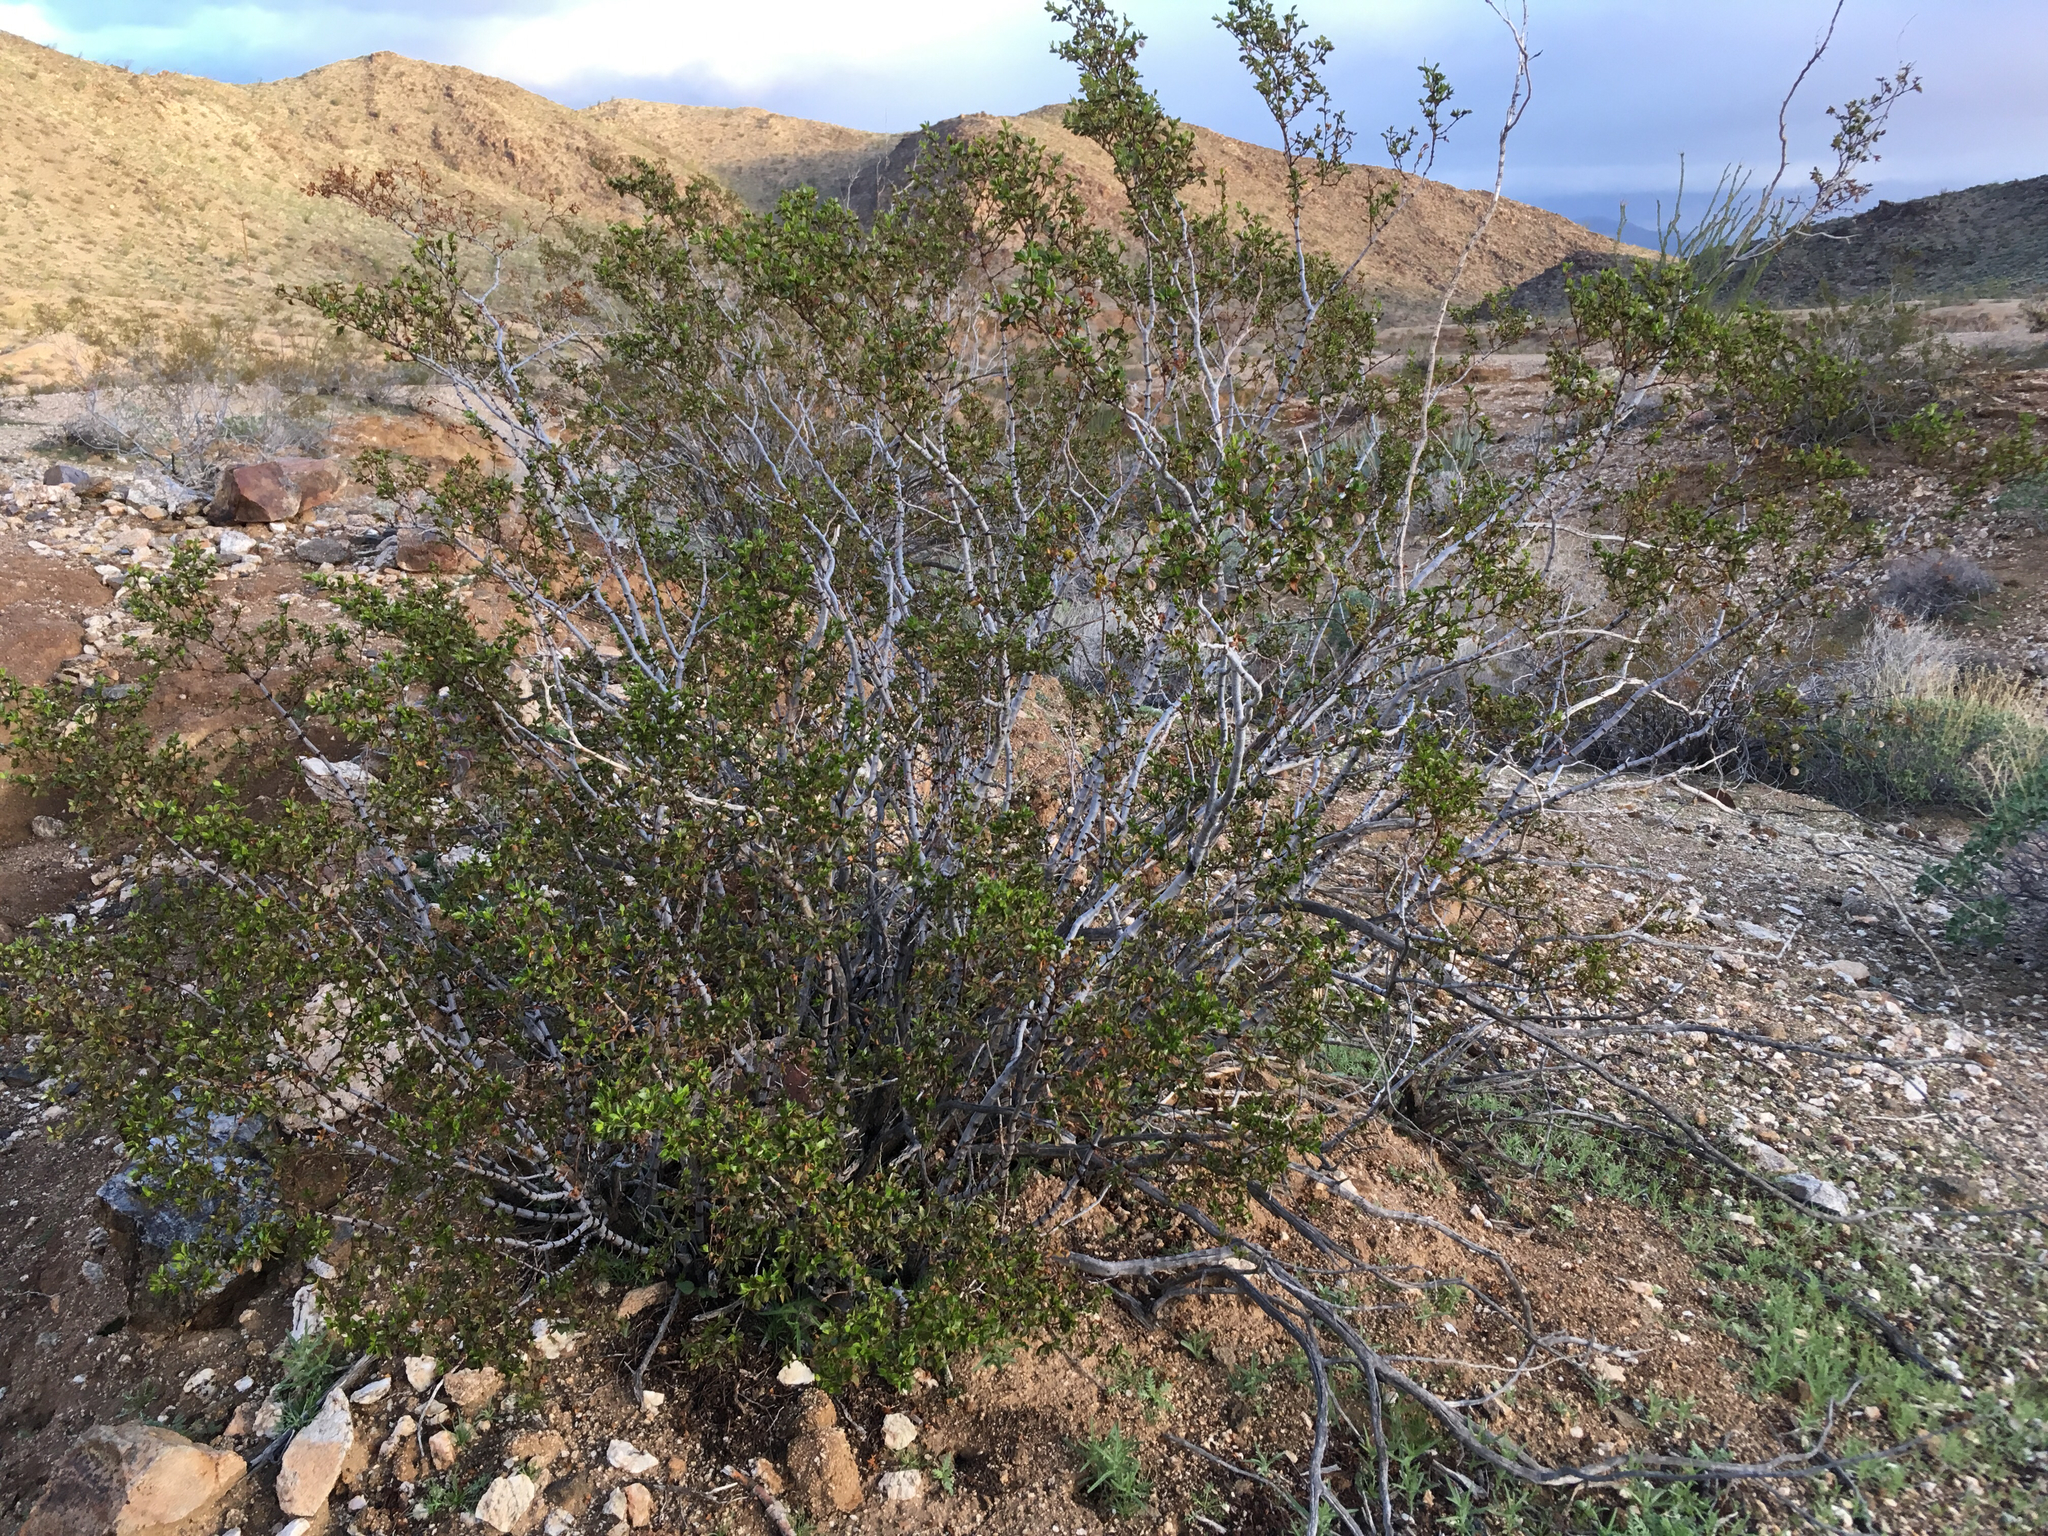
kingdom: Plantae
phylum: Tracheophyta
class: Magnoliopsida
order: Zygophyllales
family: Zygophyllaceae
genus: Larrea
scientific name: Larrea tridentata
